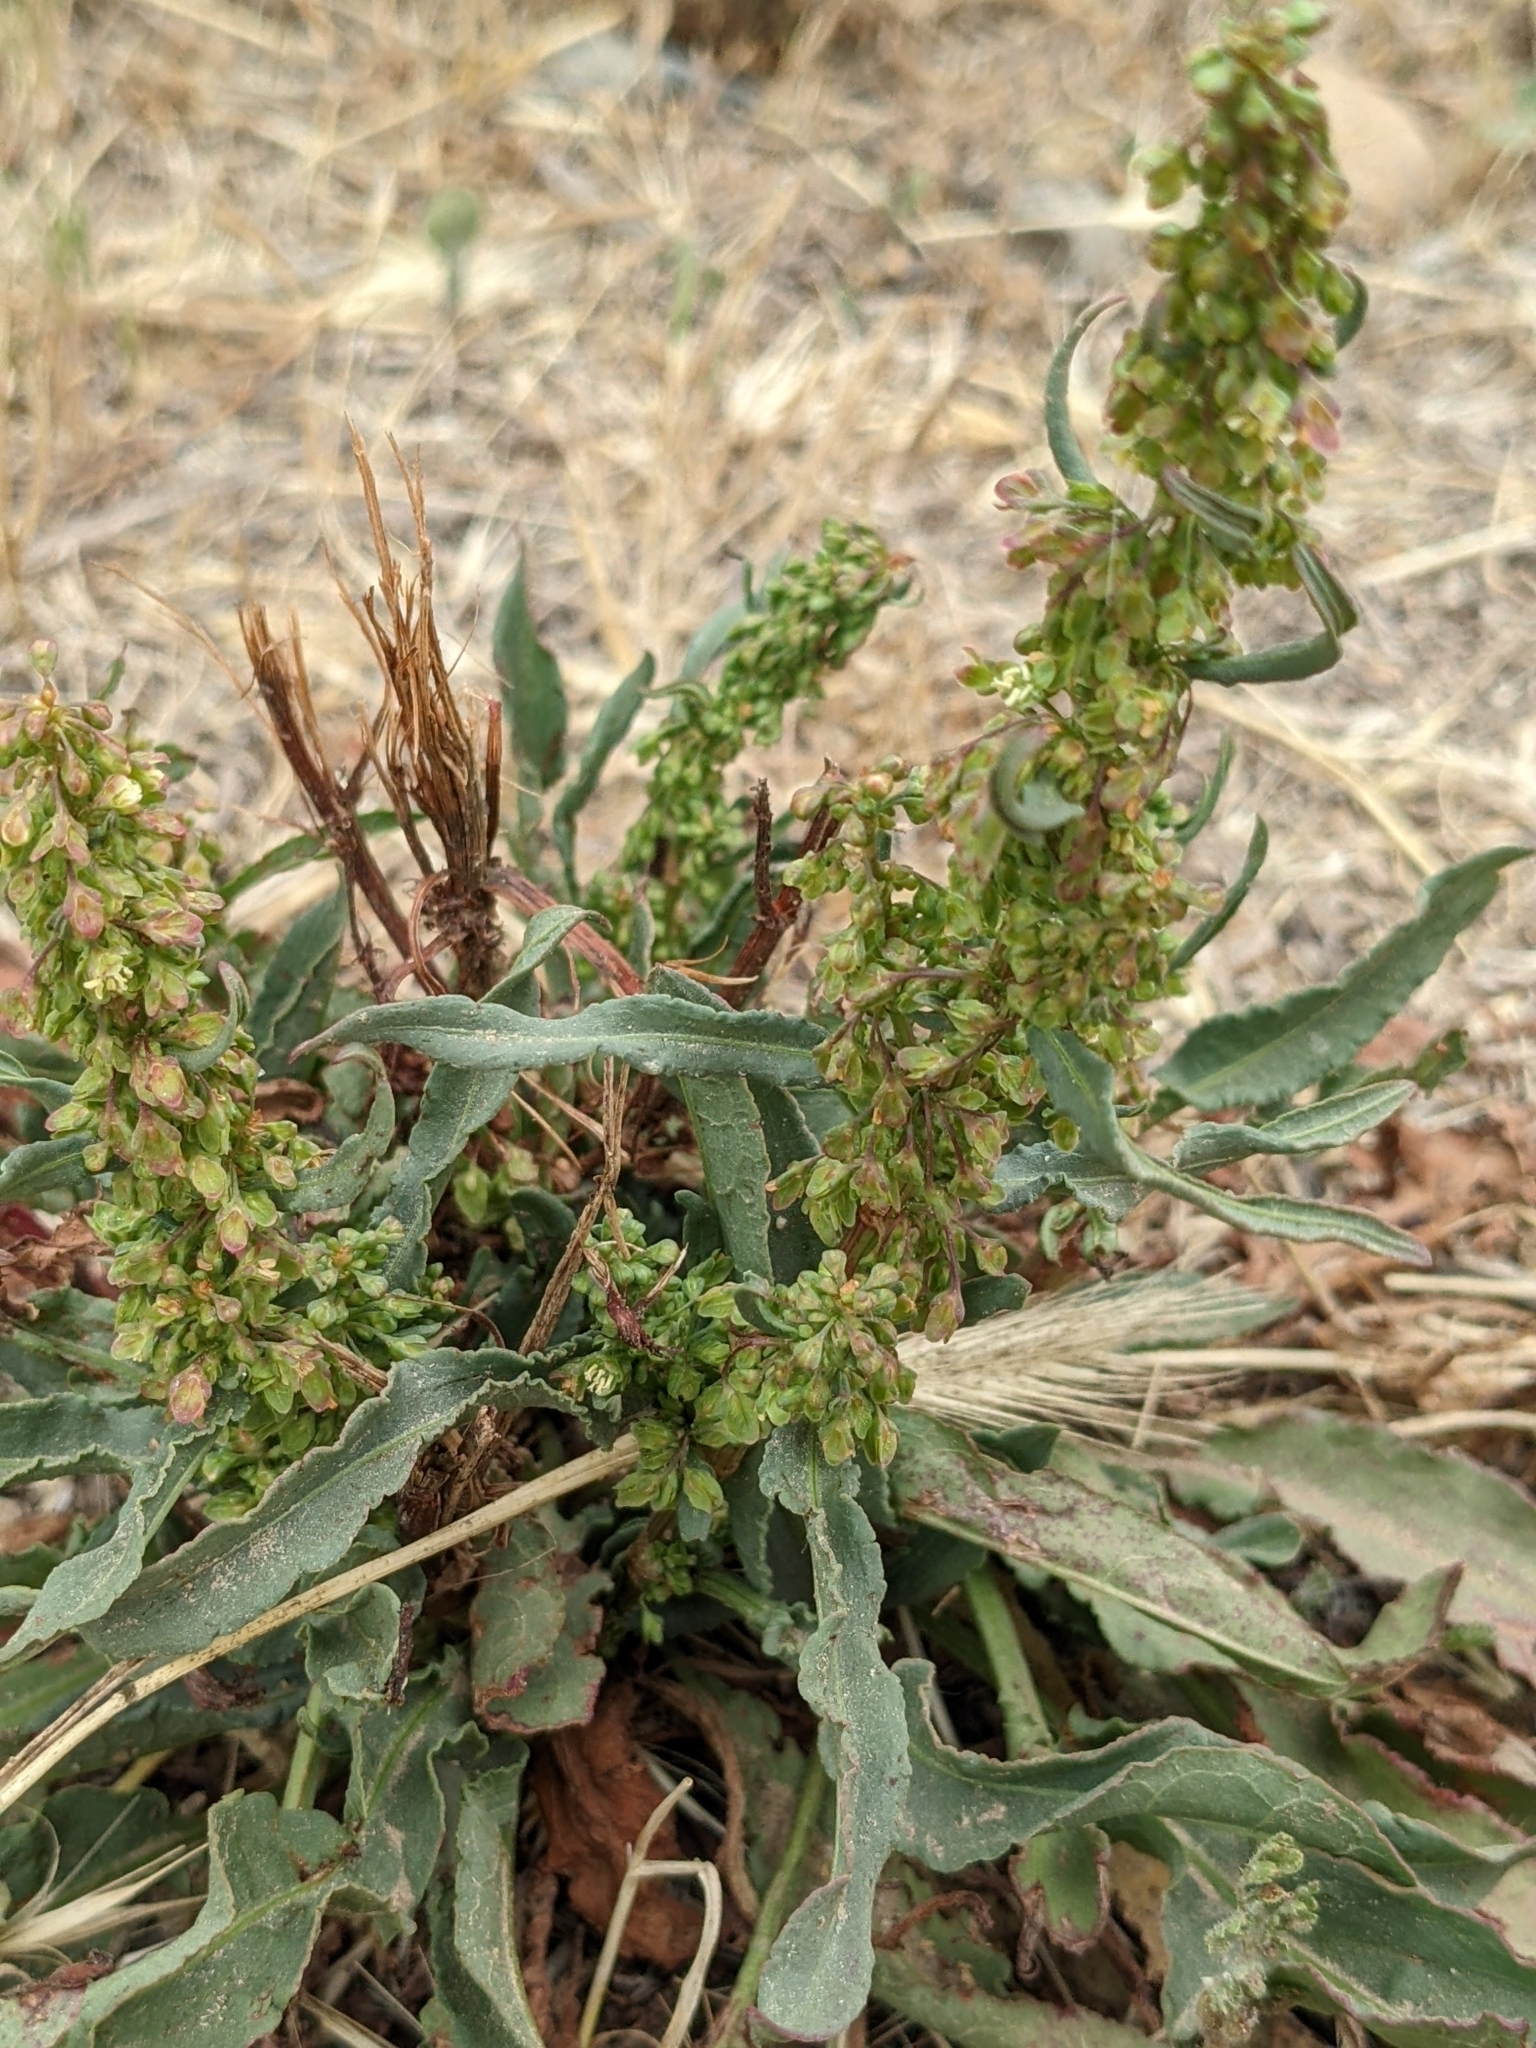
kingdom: Plantae
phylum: Tracheophyta
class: Magnoliopsida
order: Caryophyllales
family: Polygonaceae
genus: Rumex
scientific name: Rumex crispus
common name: Curled dock
